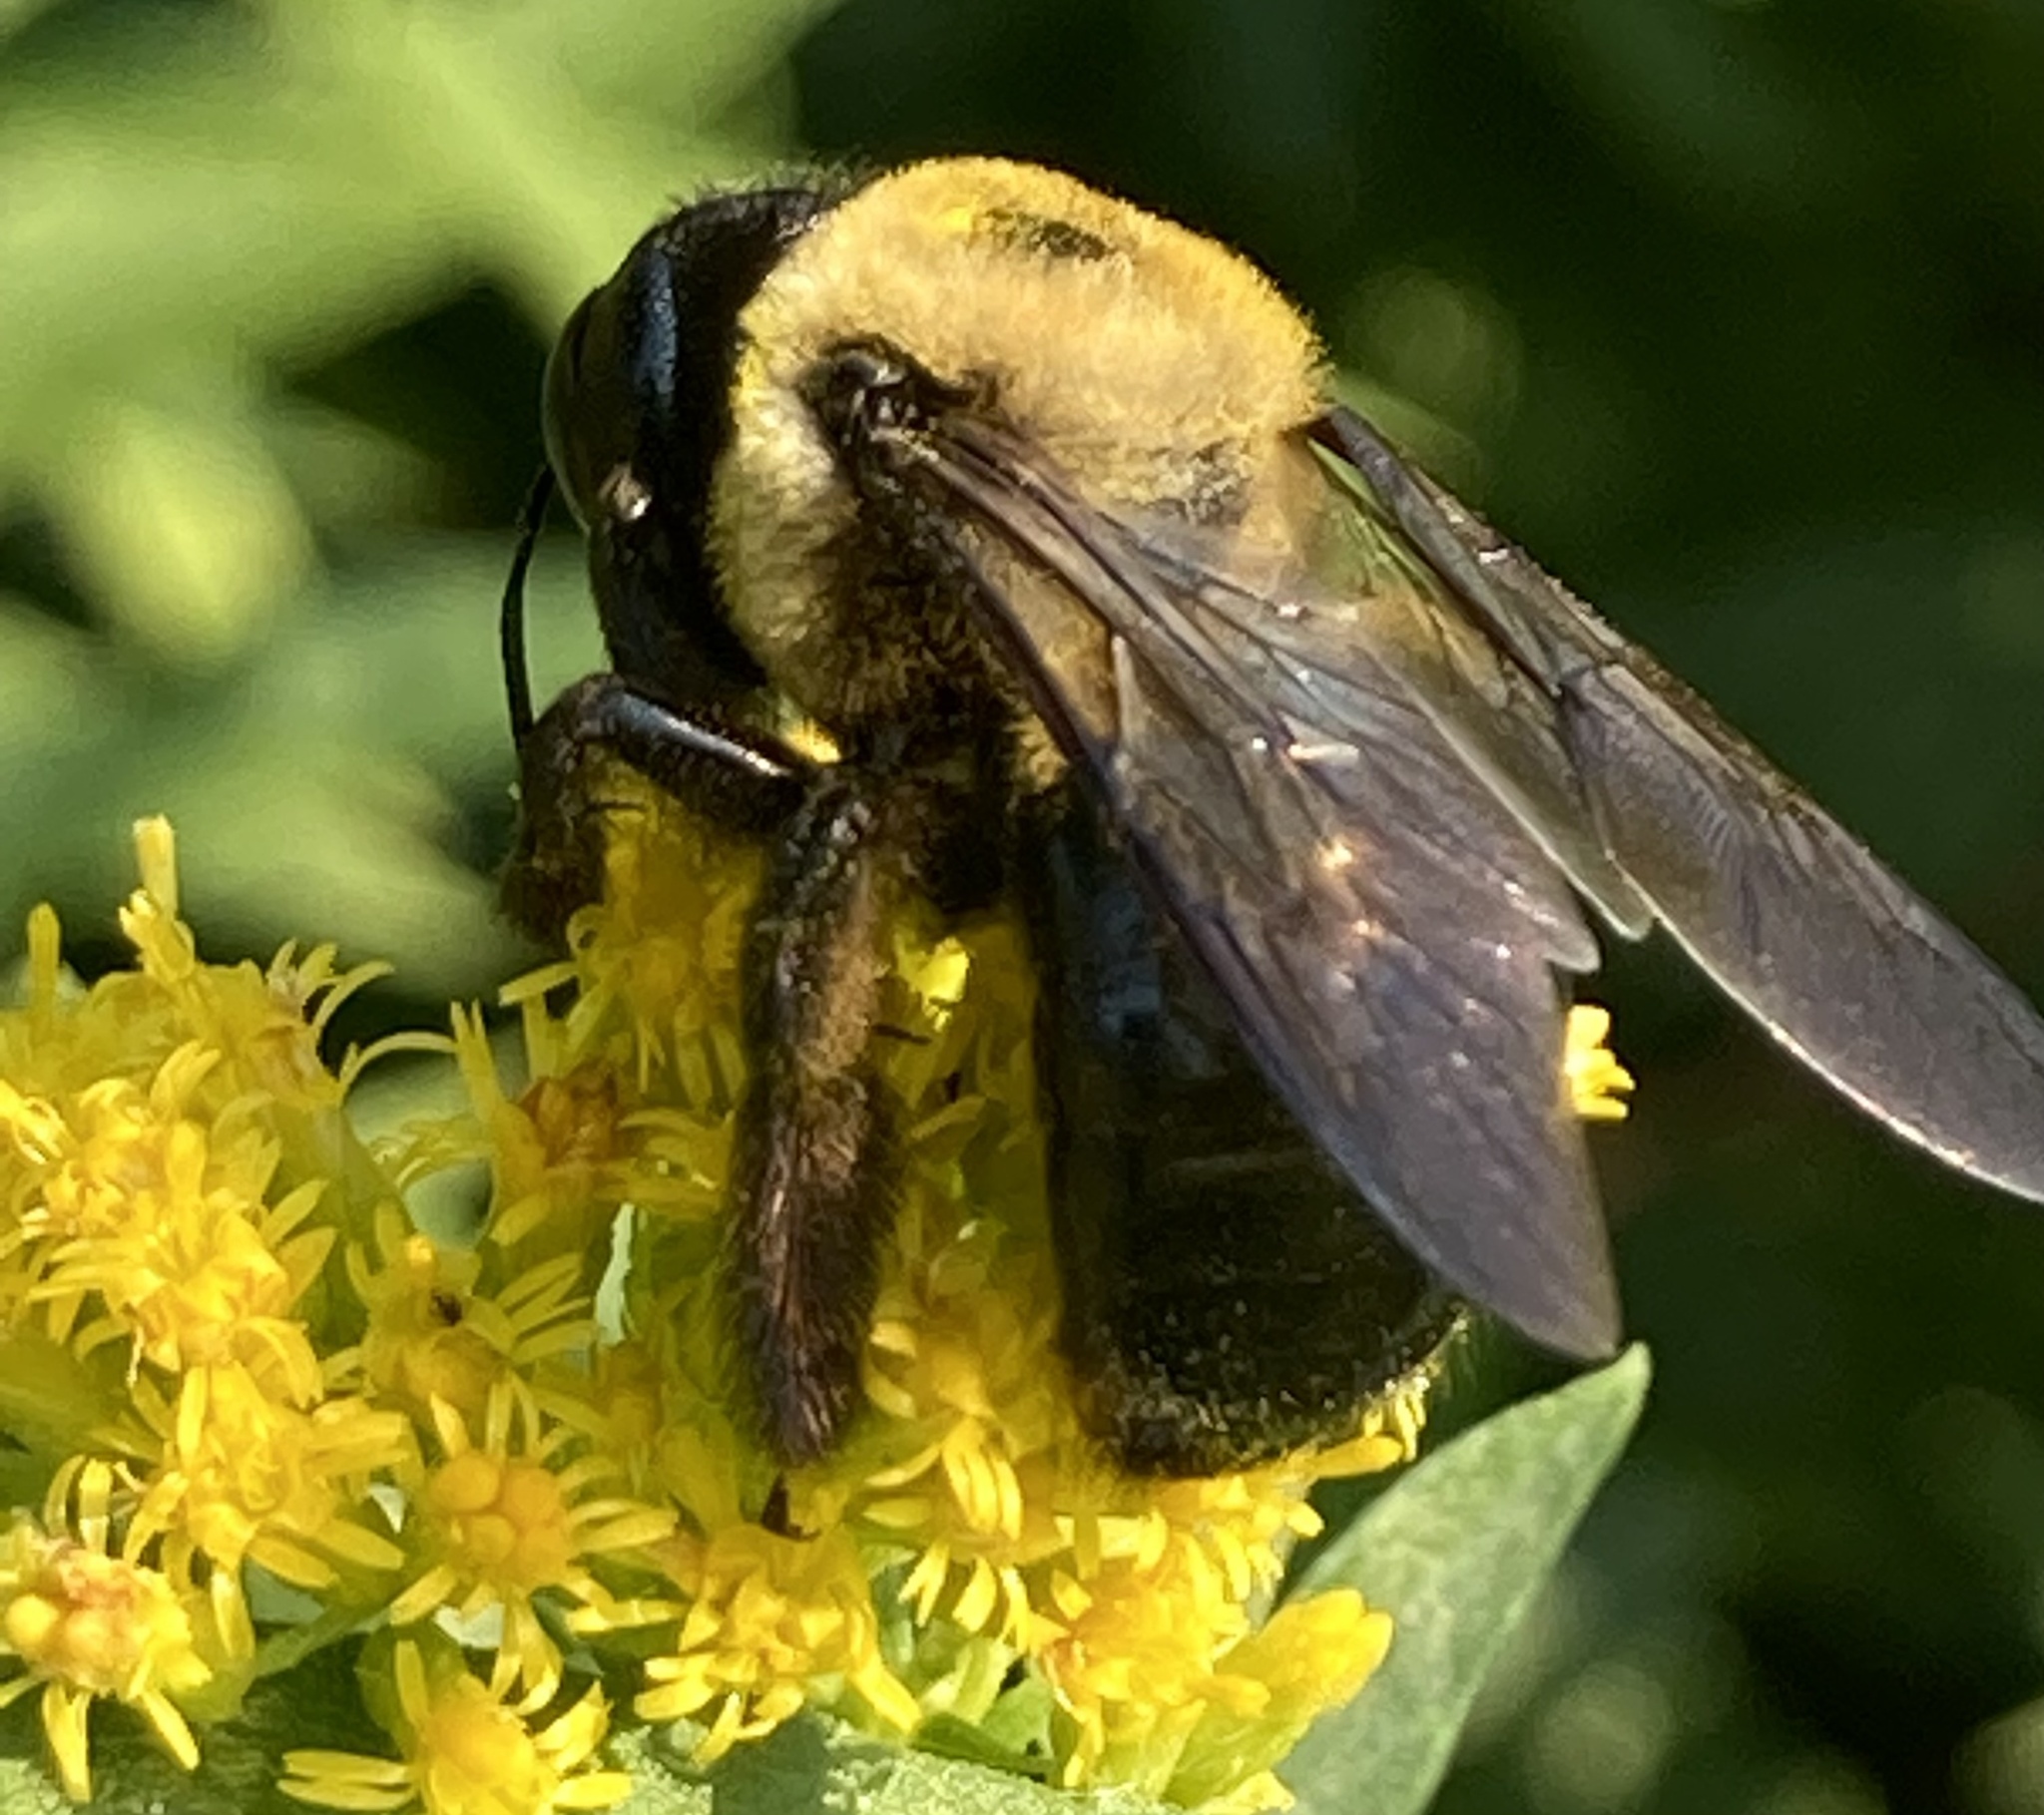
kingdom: Animalia
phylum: Arthropoda
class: Insecta
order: Hymenoptera
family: Apidae
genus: Xylocopa
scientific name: Xylocopa virginica
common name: Carpenter bee
